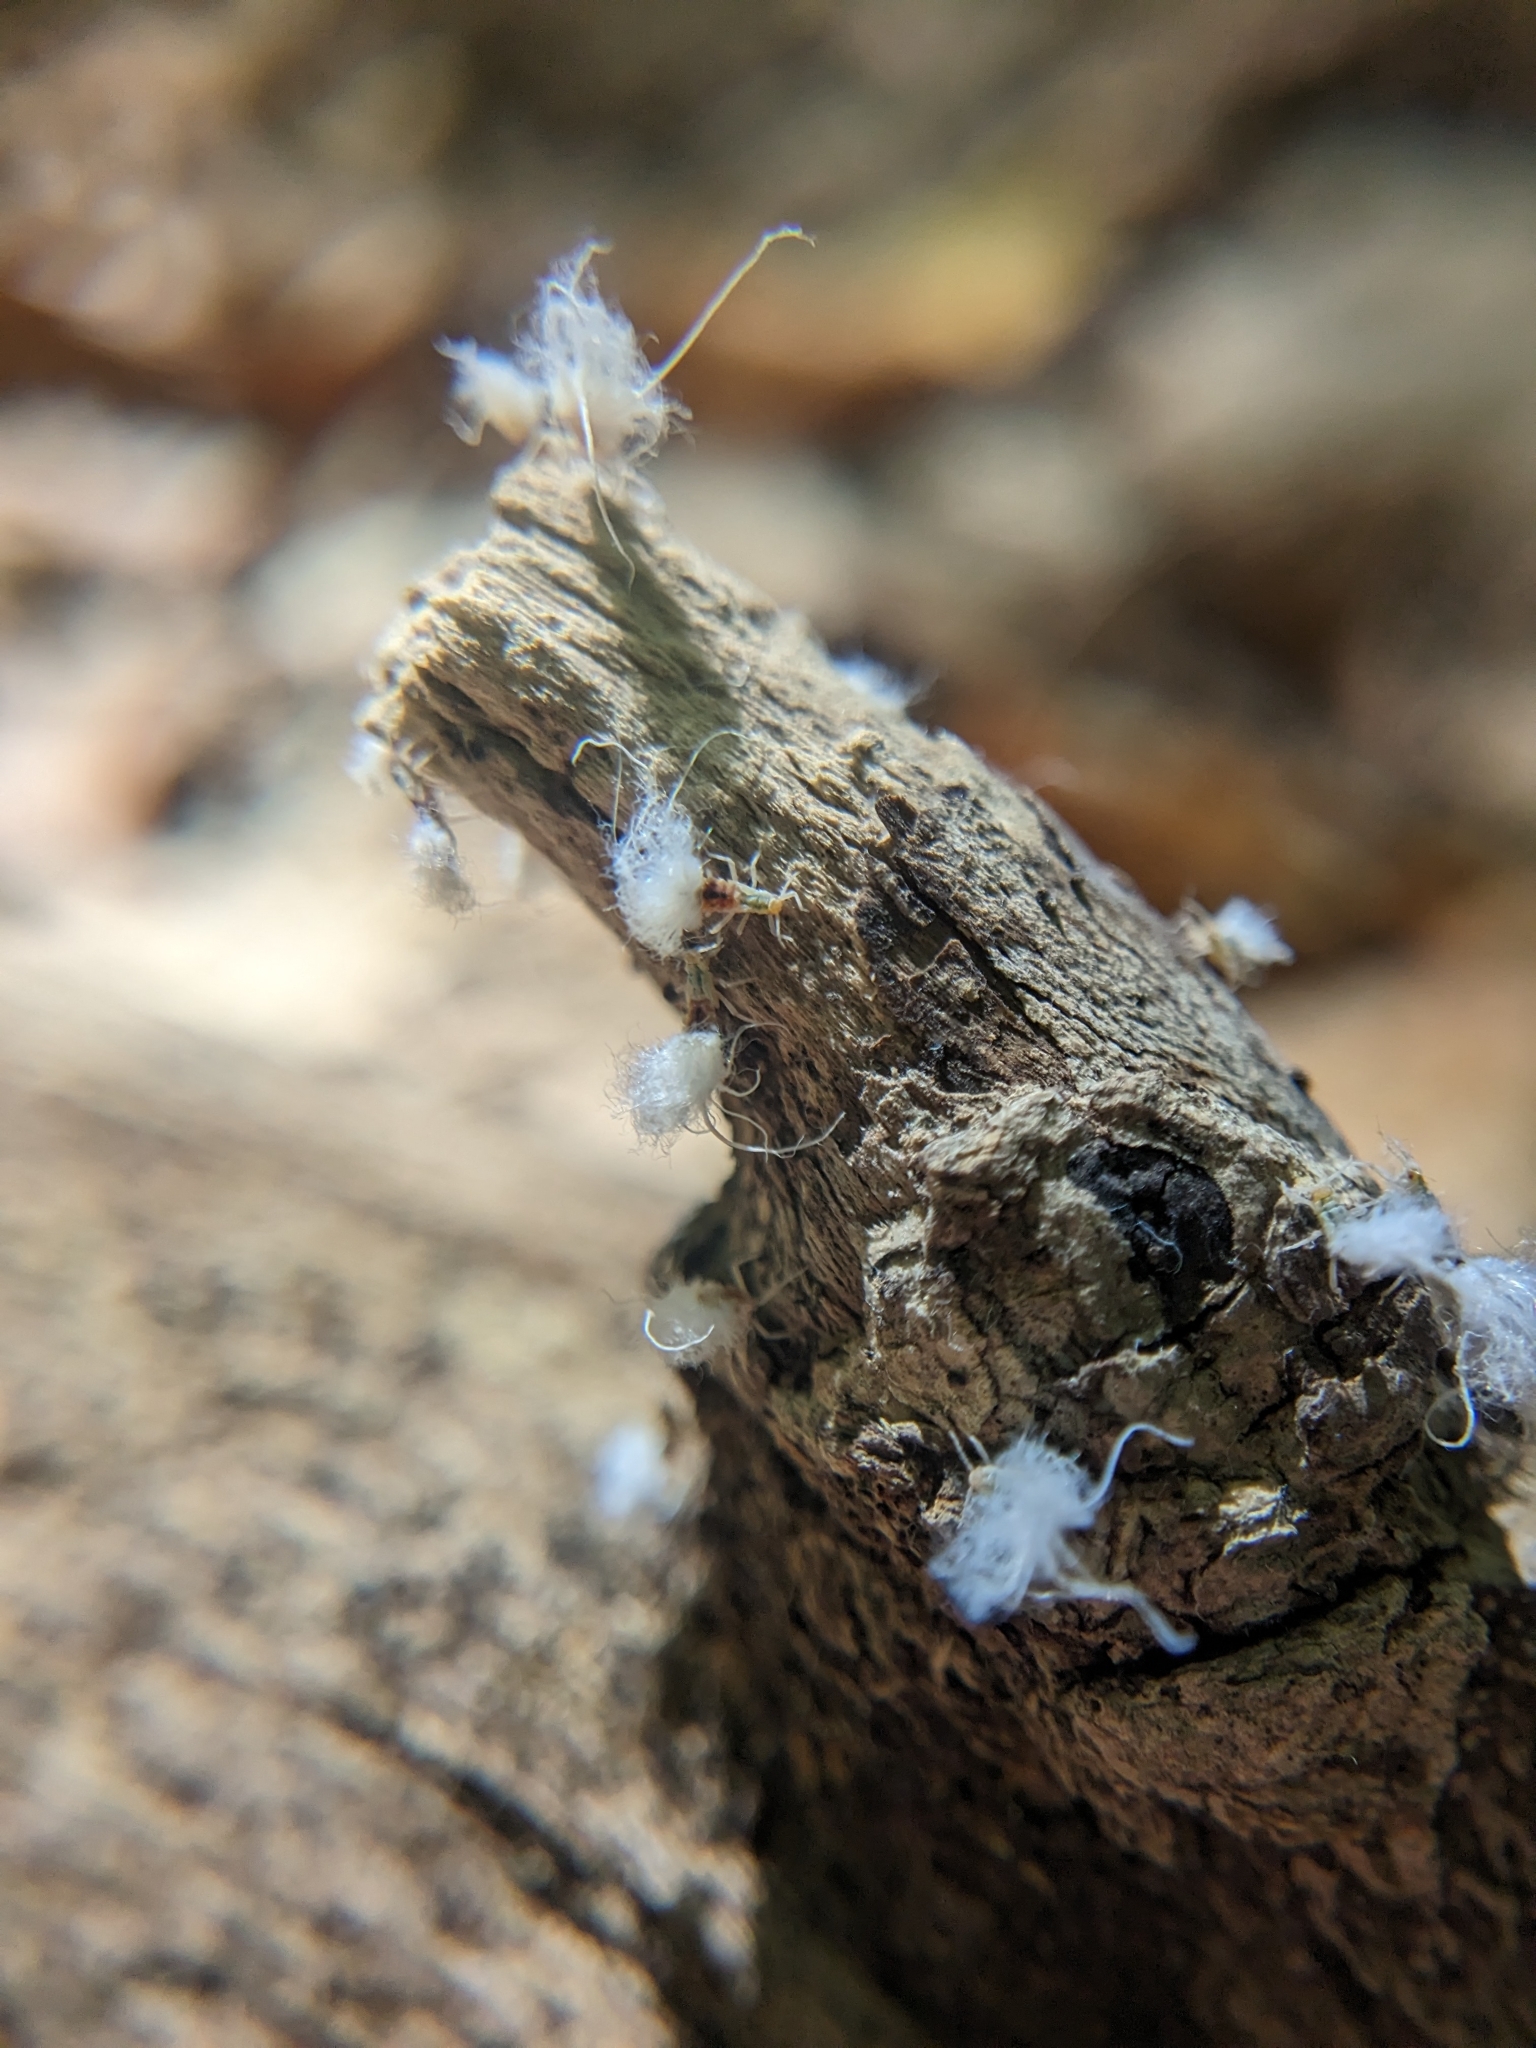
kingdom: Animalia
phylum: Arthropoda
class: Insecta
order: Hemiptera
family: Aphididae
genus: Grylloprociphilus
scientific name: Grylloprociphilus imbricator
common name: Beech blight aphid
